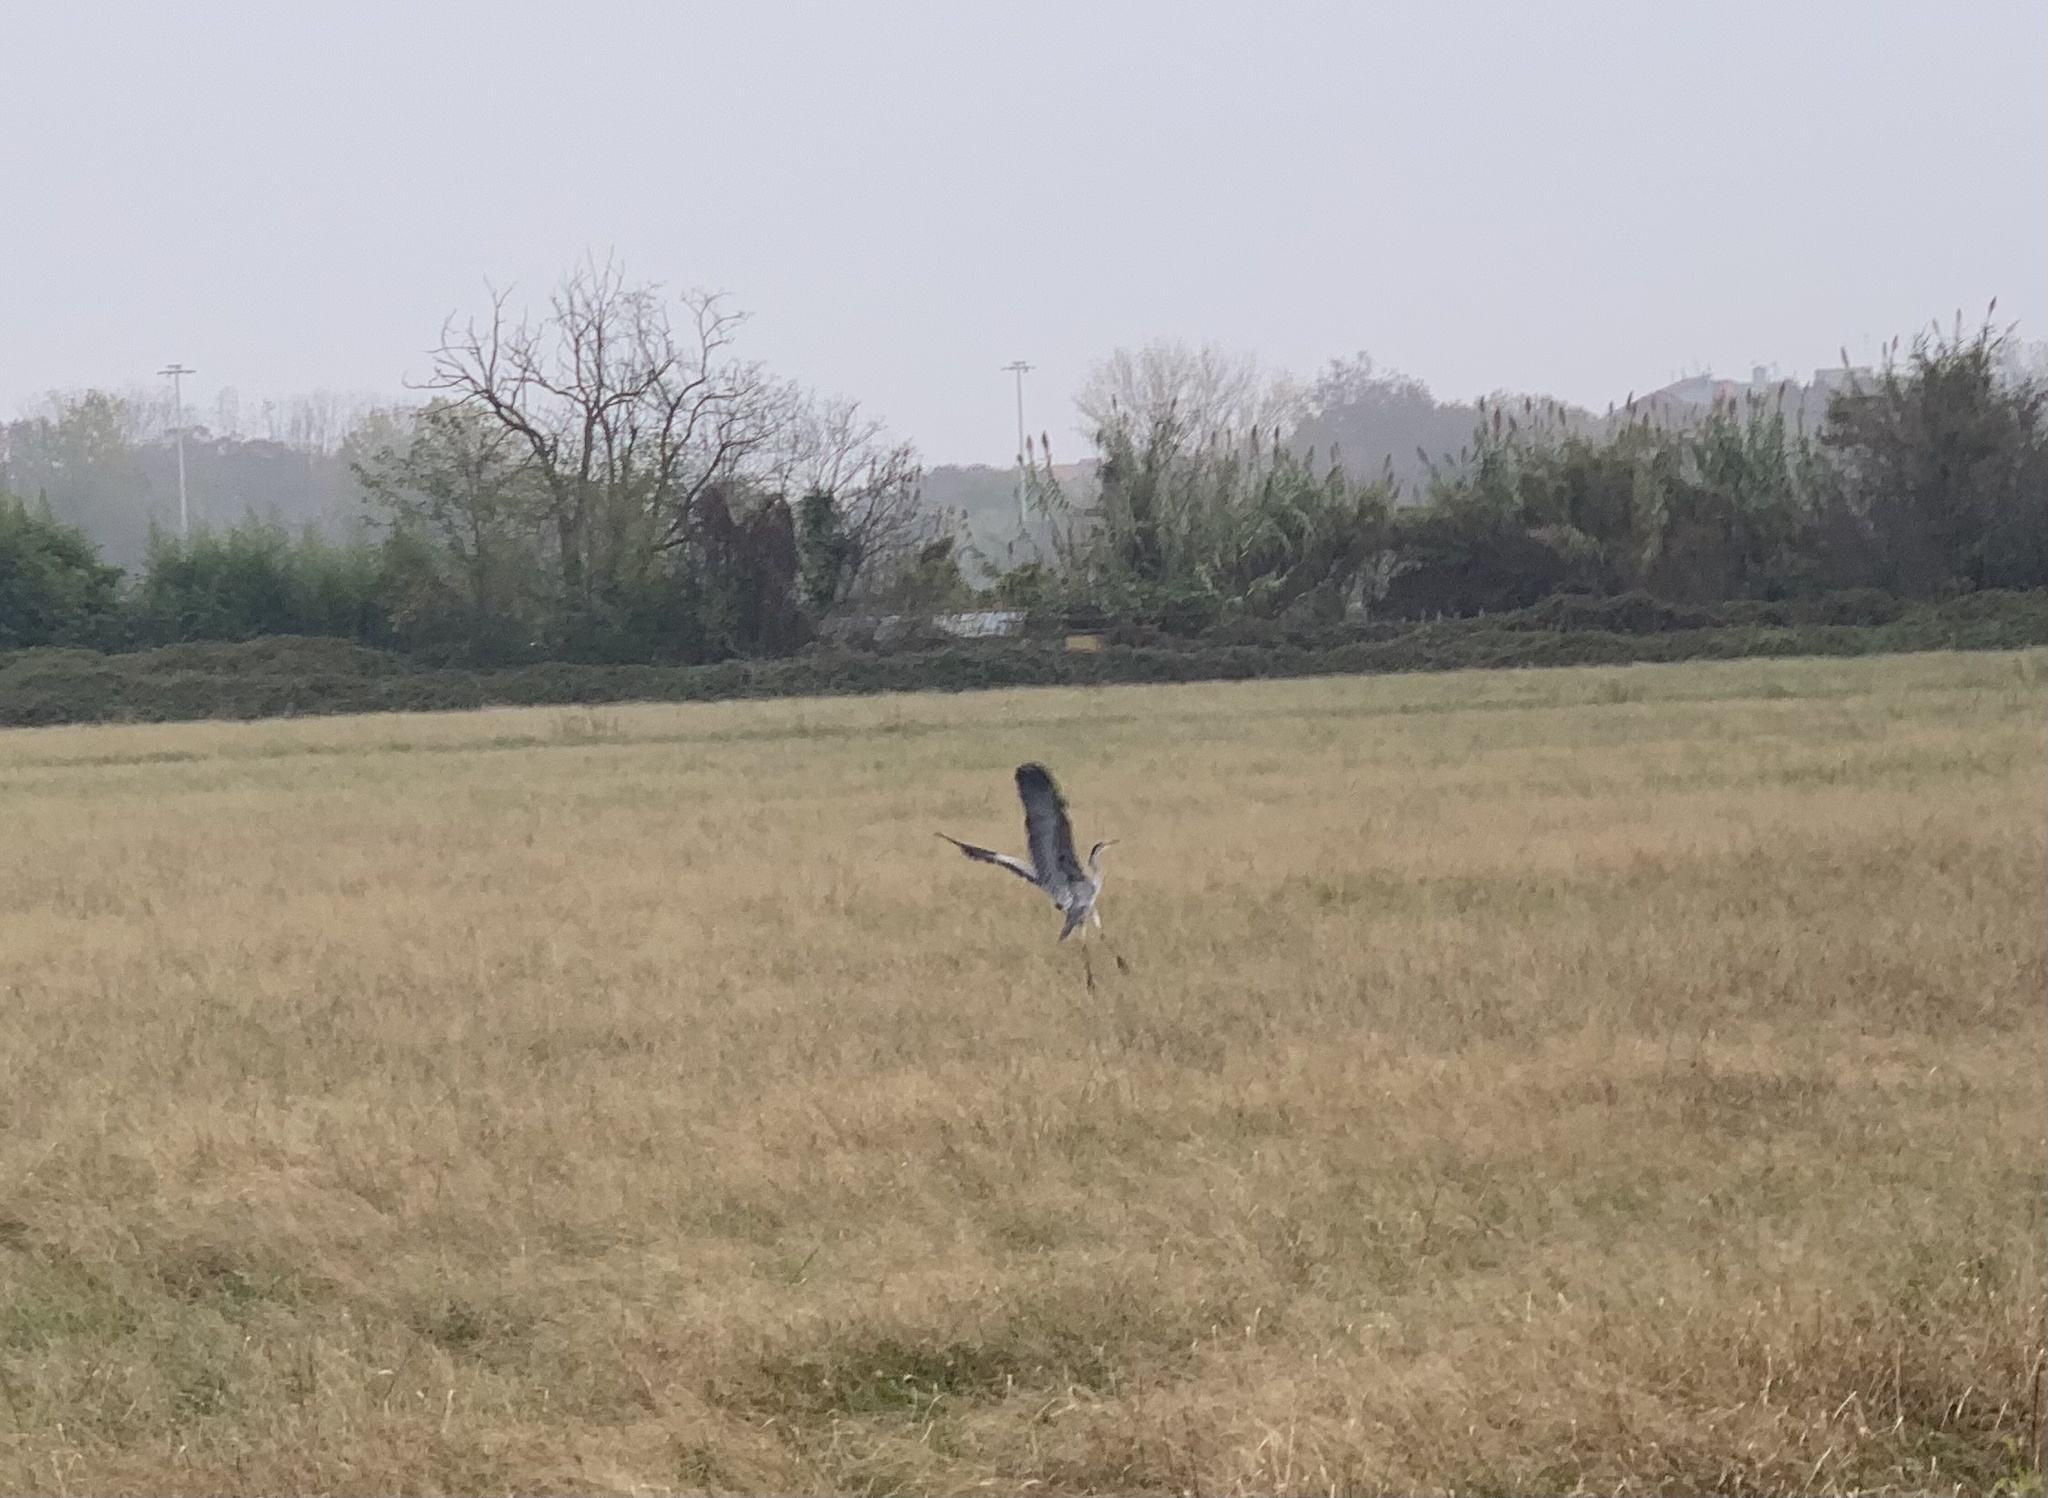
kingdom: Animalia
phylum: Chordata
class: Aves
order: Pelecaniformes
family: Ardeidae
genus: Ardea
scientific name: Ardea cinerea
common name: Grey heron
